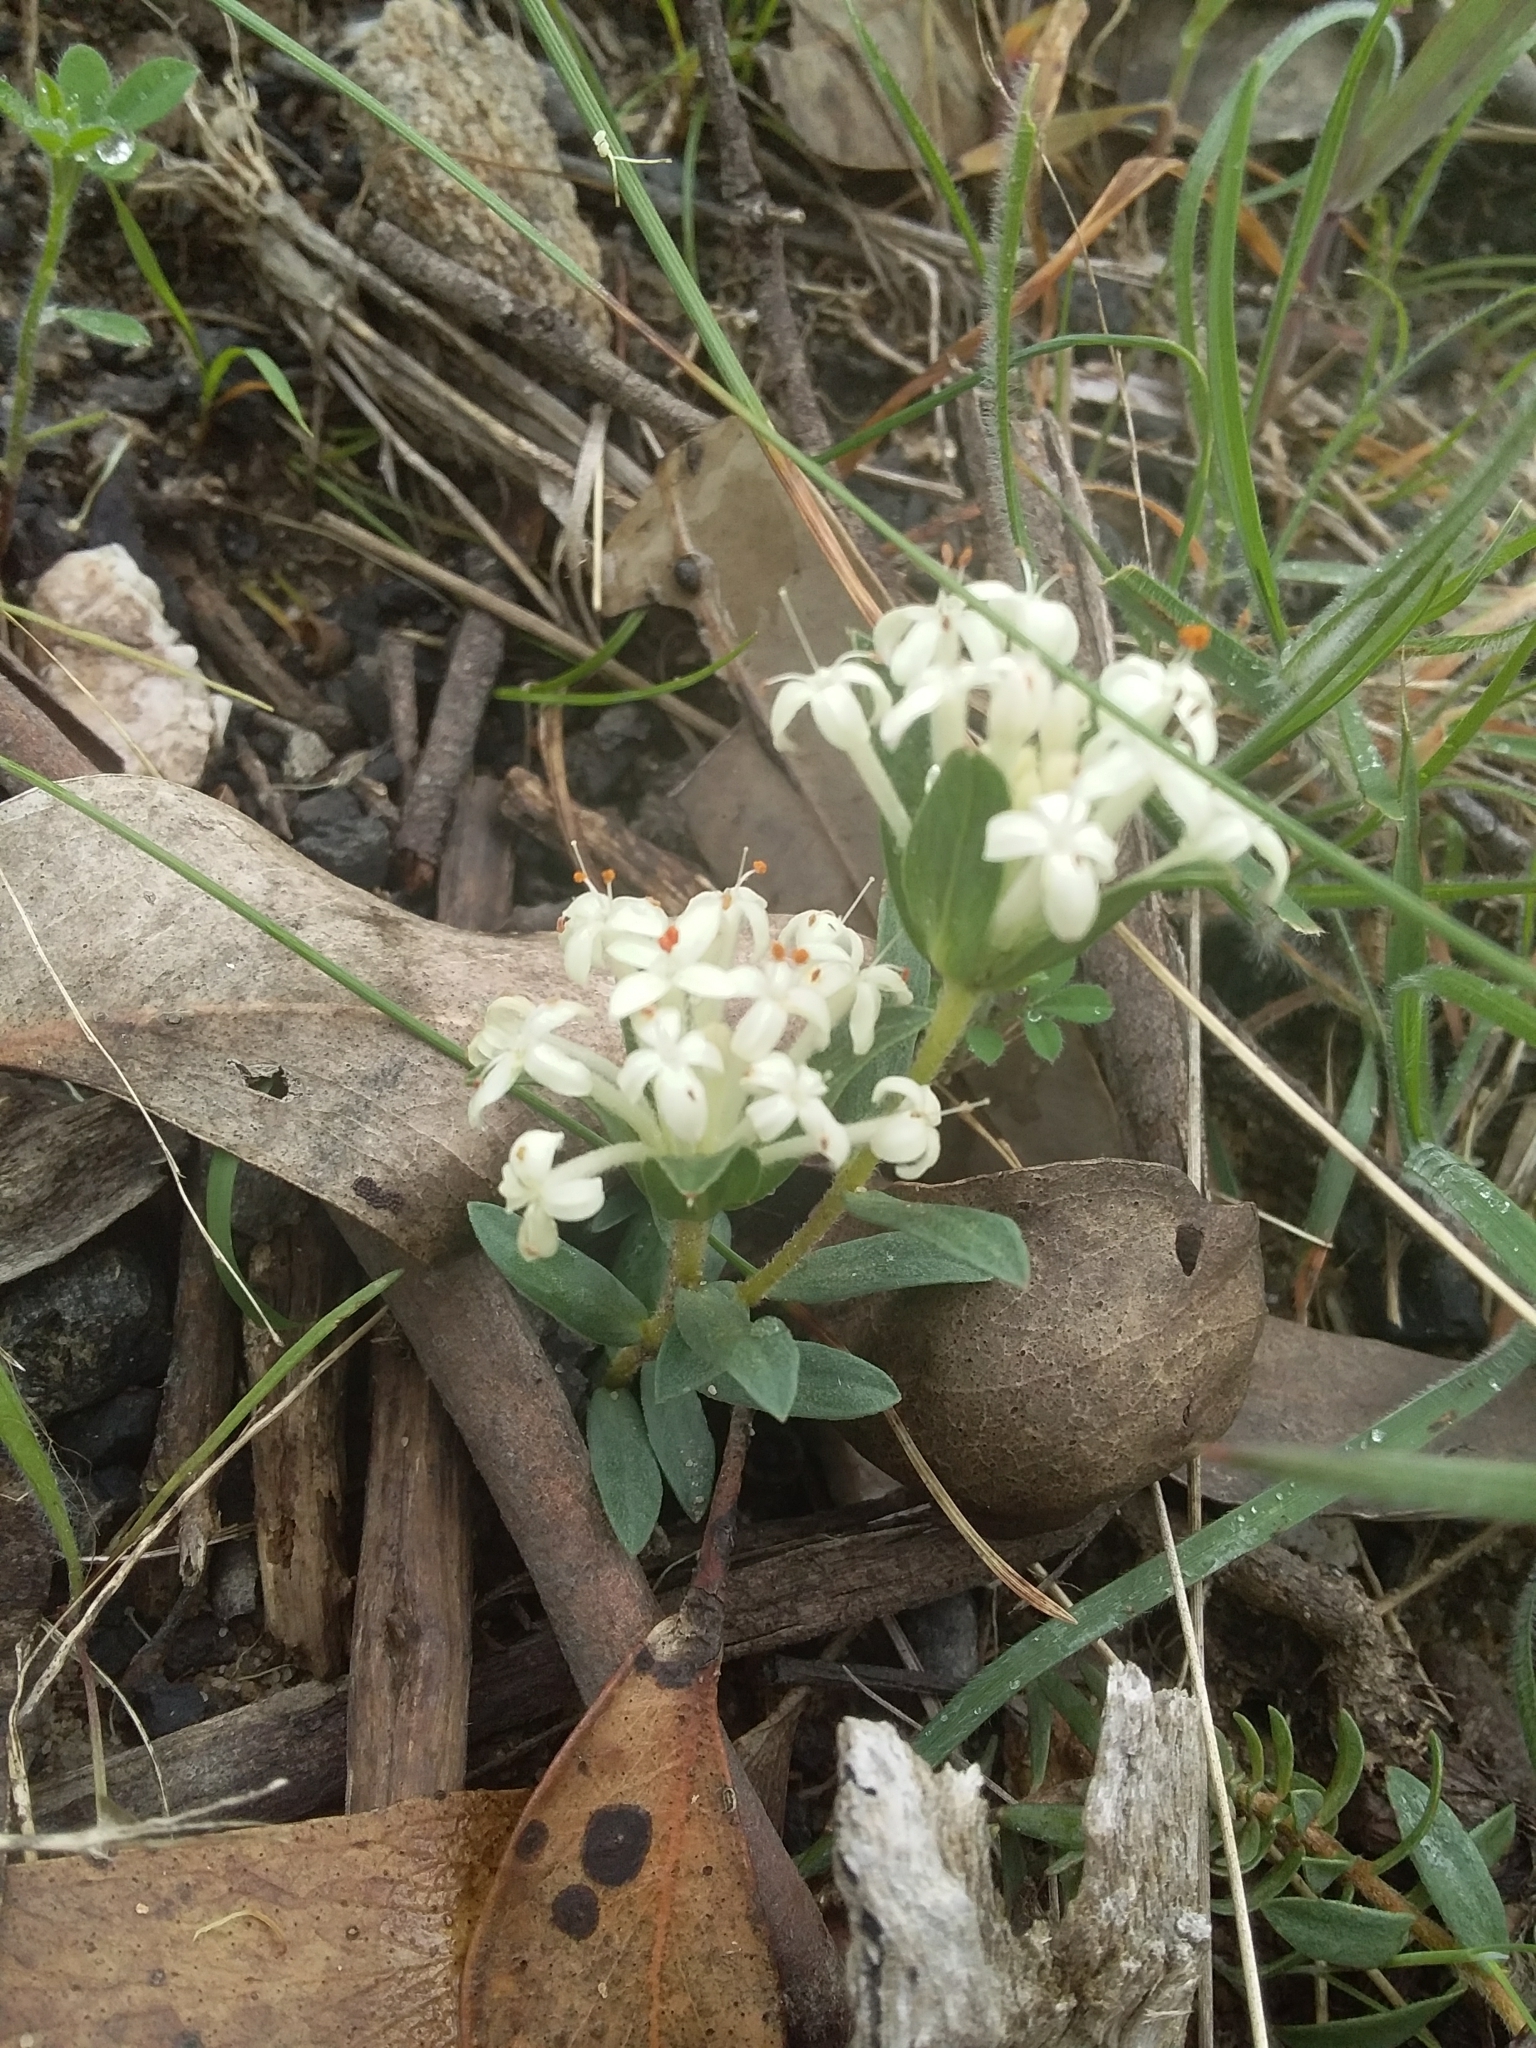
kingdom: Plantae
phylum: Tracheophyta
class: Magnoliopsida
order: Malvales
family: Thymelaeaceae
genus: Pimelea
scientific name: Pimelea humilis
